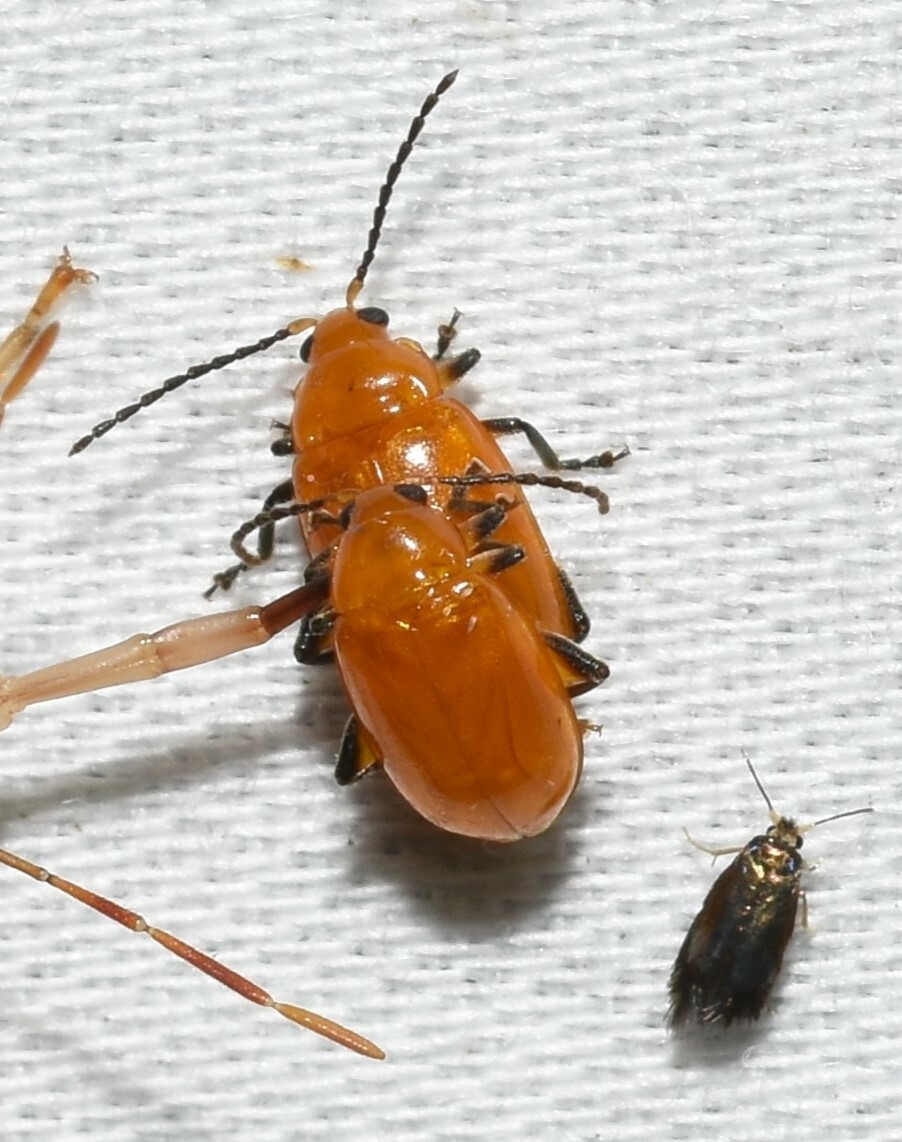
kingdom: Animalia
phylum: Arthropoda
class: Insecta
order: Coleoptera
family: Chrysomelidae
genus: Parchicola
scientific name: Parchicola tibialis
